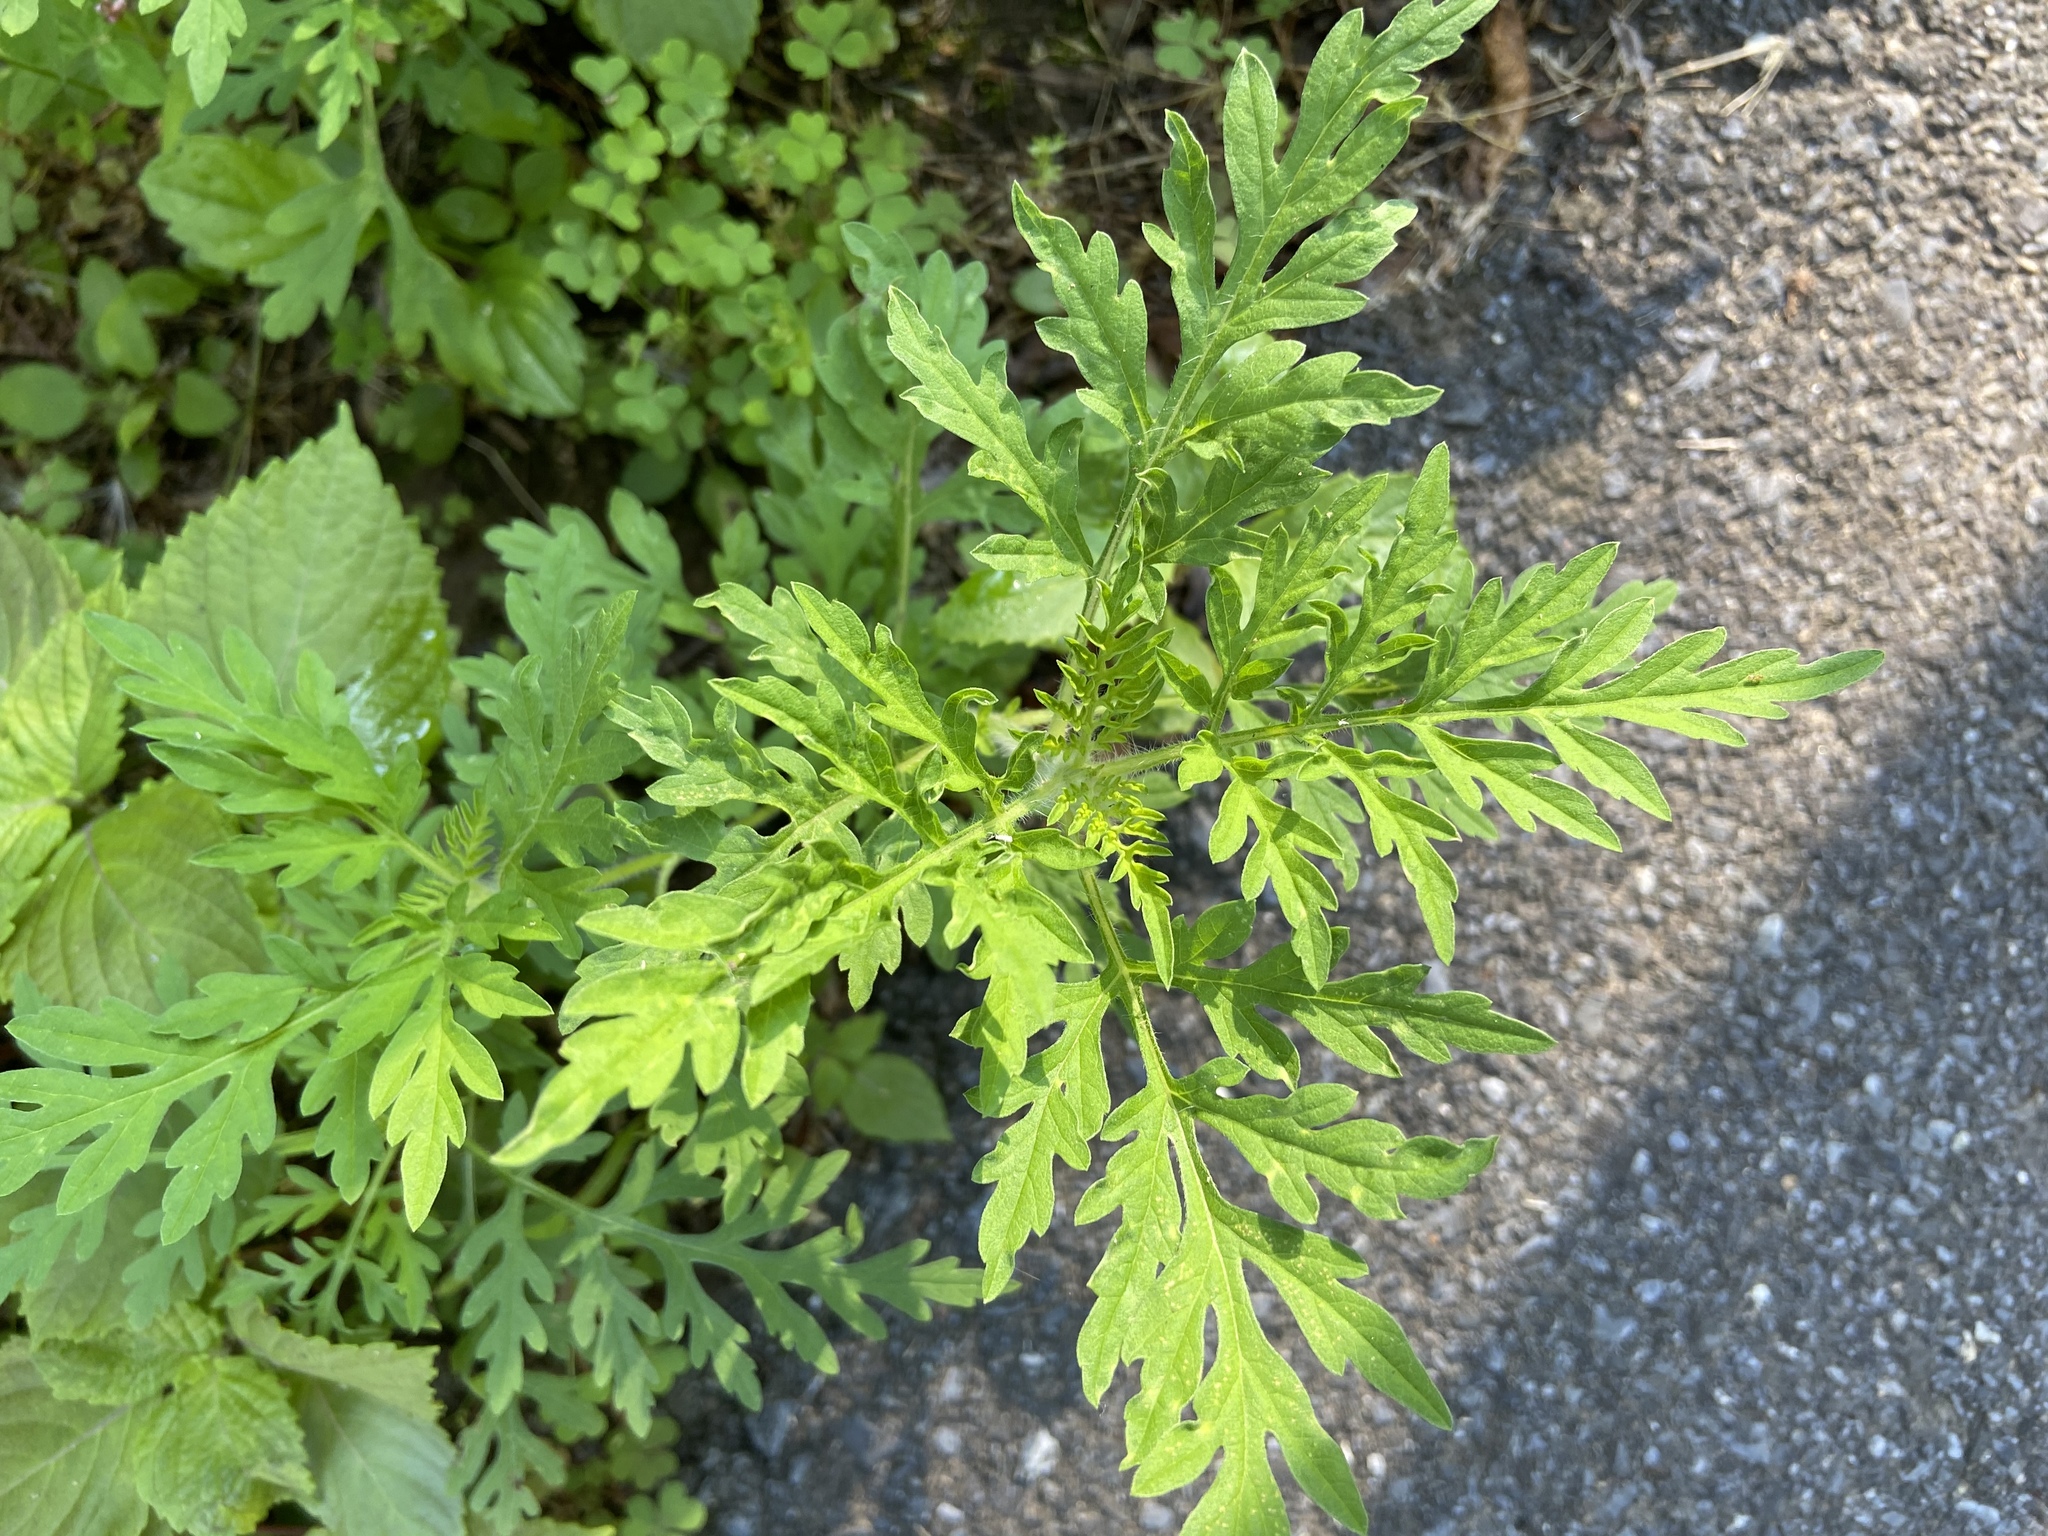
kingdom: Plantae
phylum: Tracheophyta
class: Magnoliopsida
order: Asterales
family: Asteraceae
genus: Ambrosia
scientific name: Ambrosia artemisiifolia
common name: Annual ragweed
